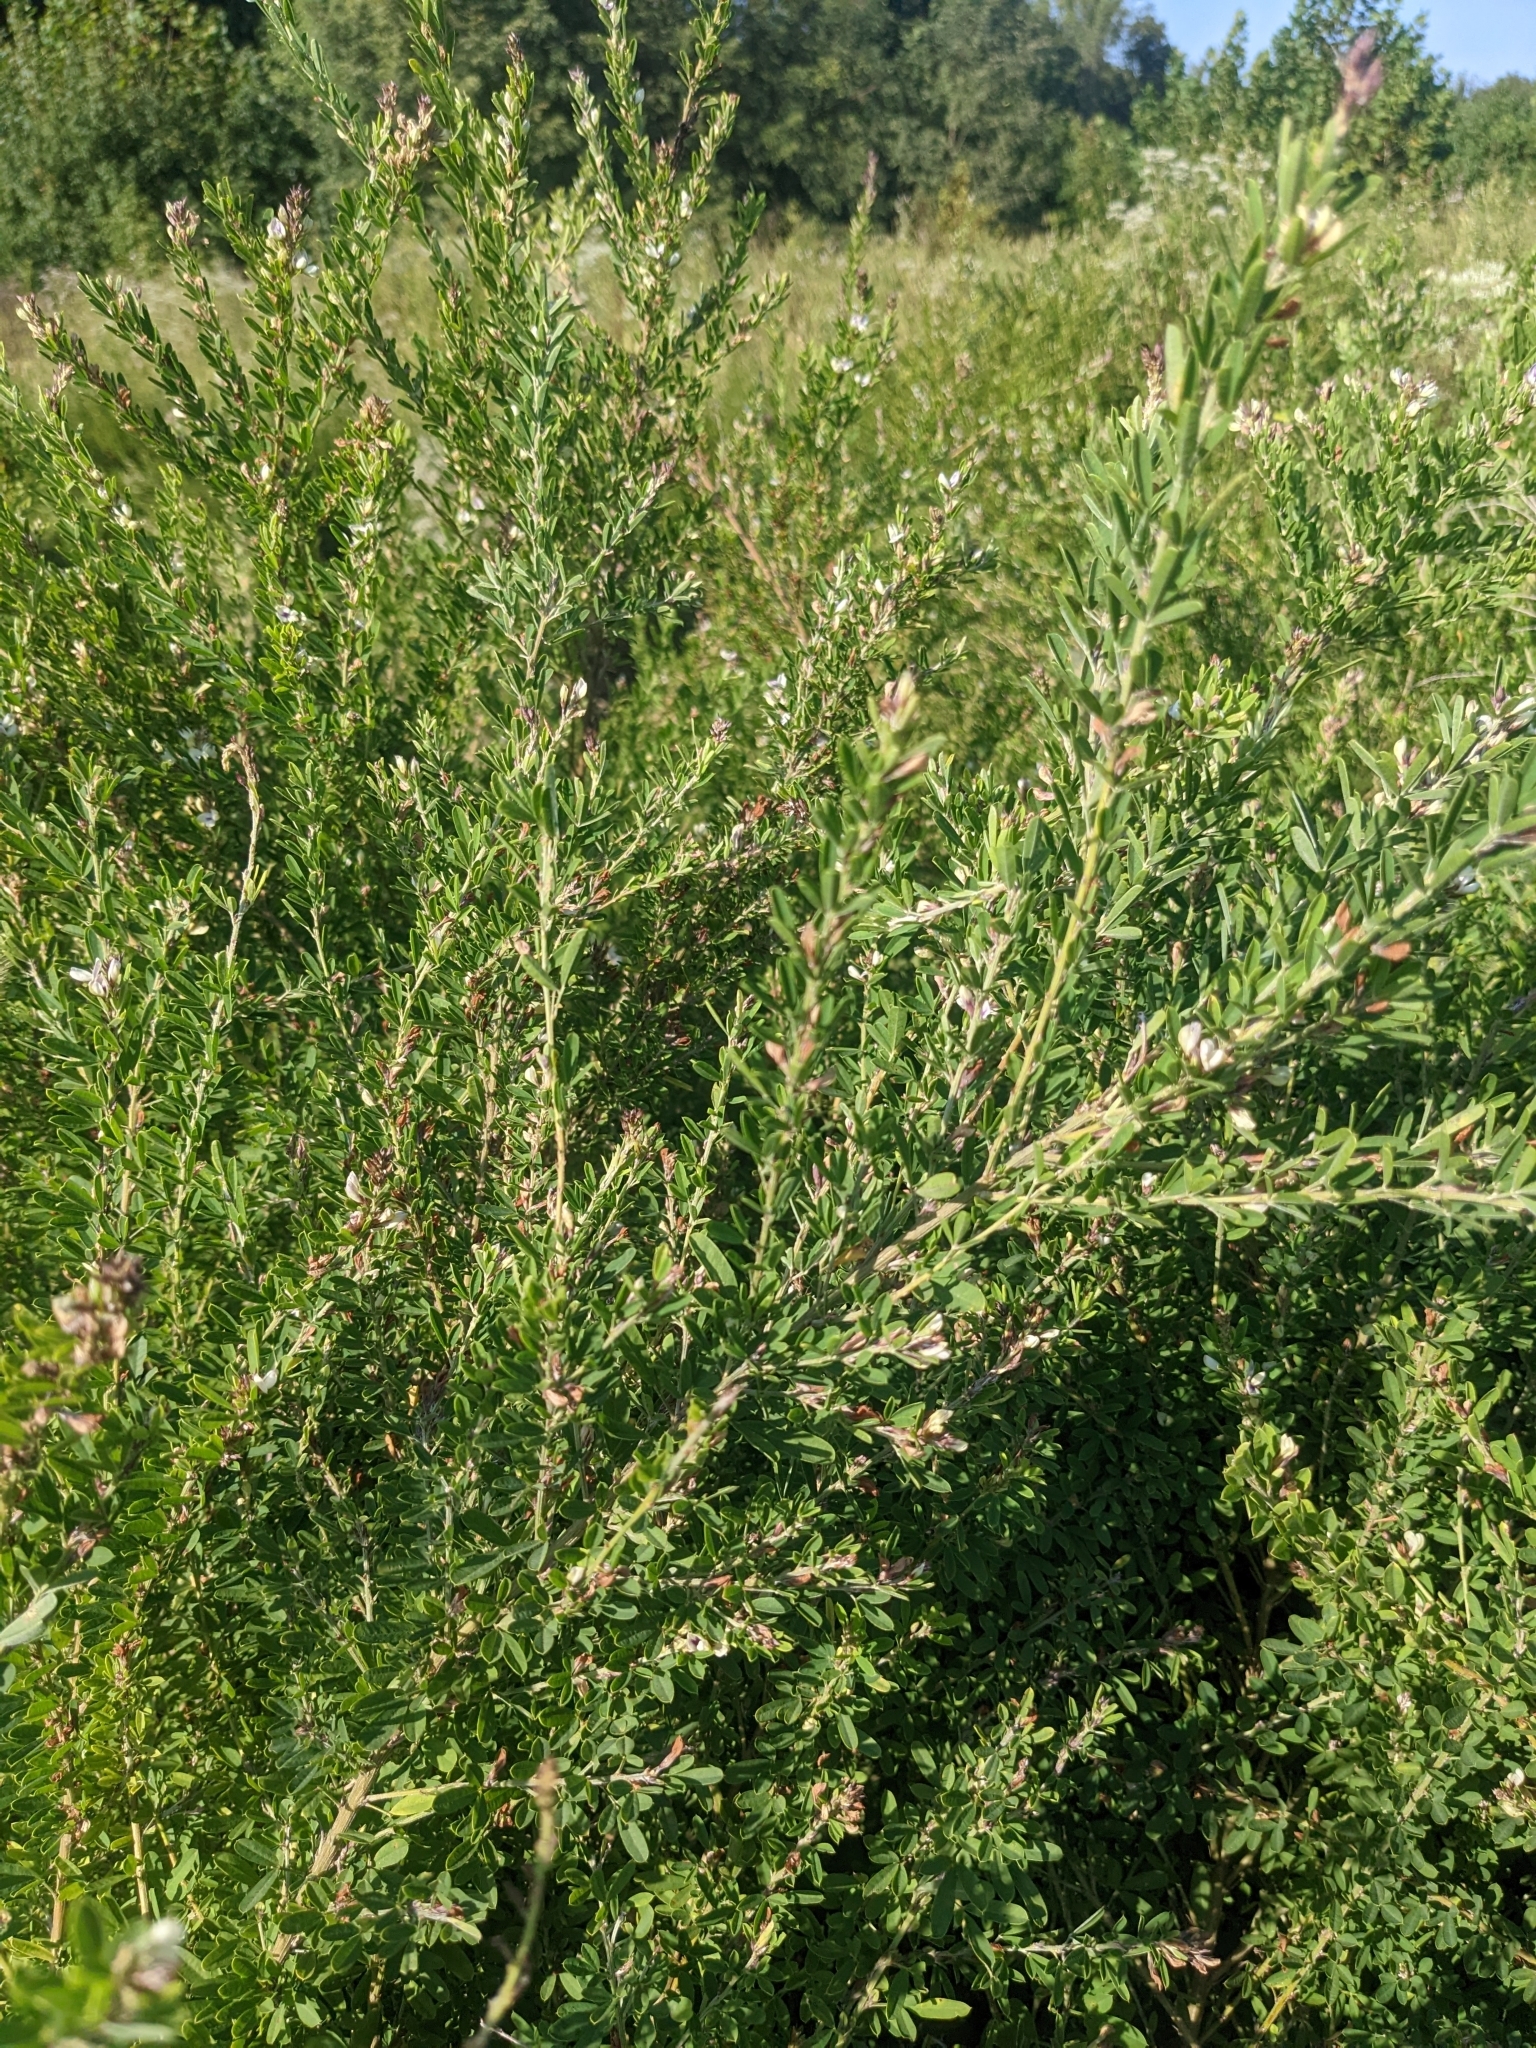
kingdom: Plantae
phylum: Tracheophyta
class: Magnoliopsida
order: Fabales
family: Fabaceae
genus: Lespedeza
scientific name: Lespedeza cuneata
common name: Chinese bush-clover
